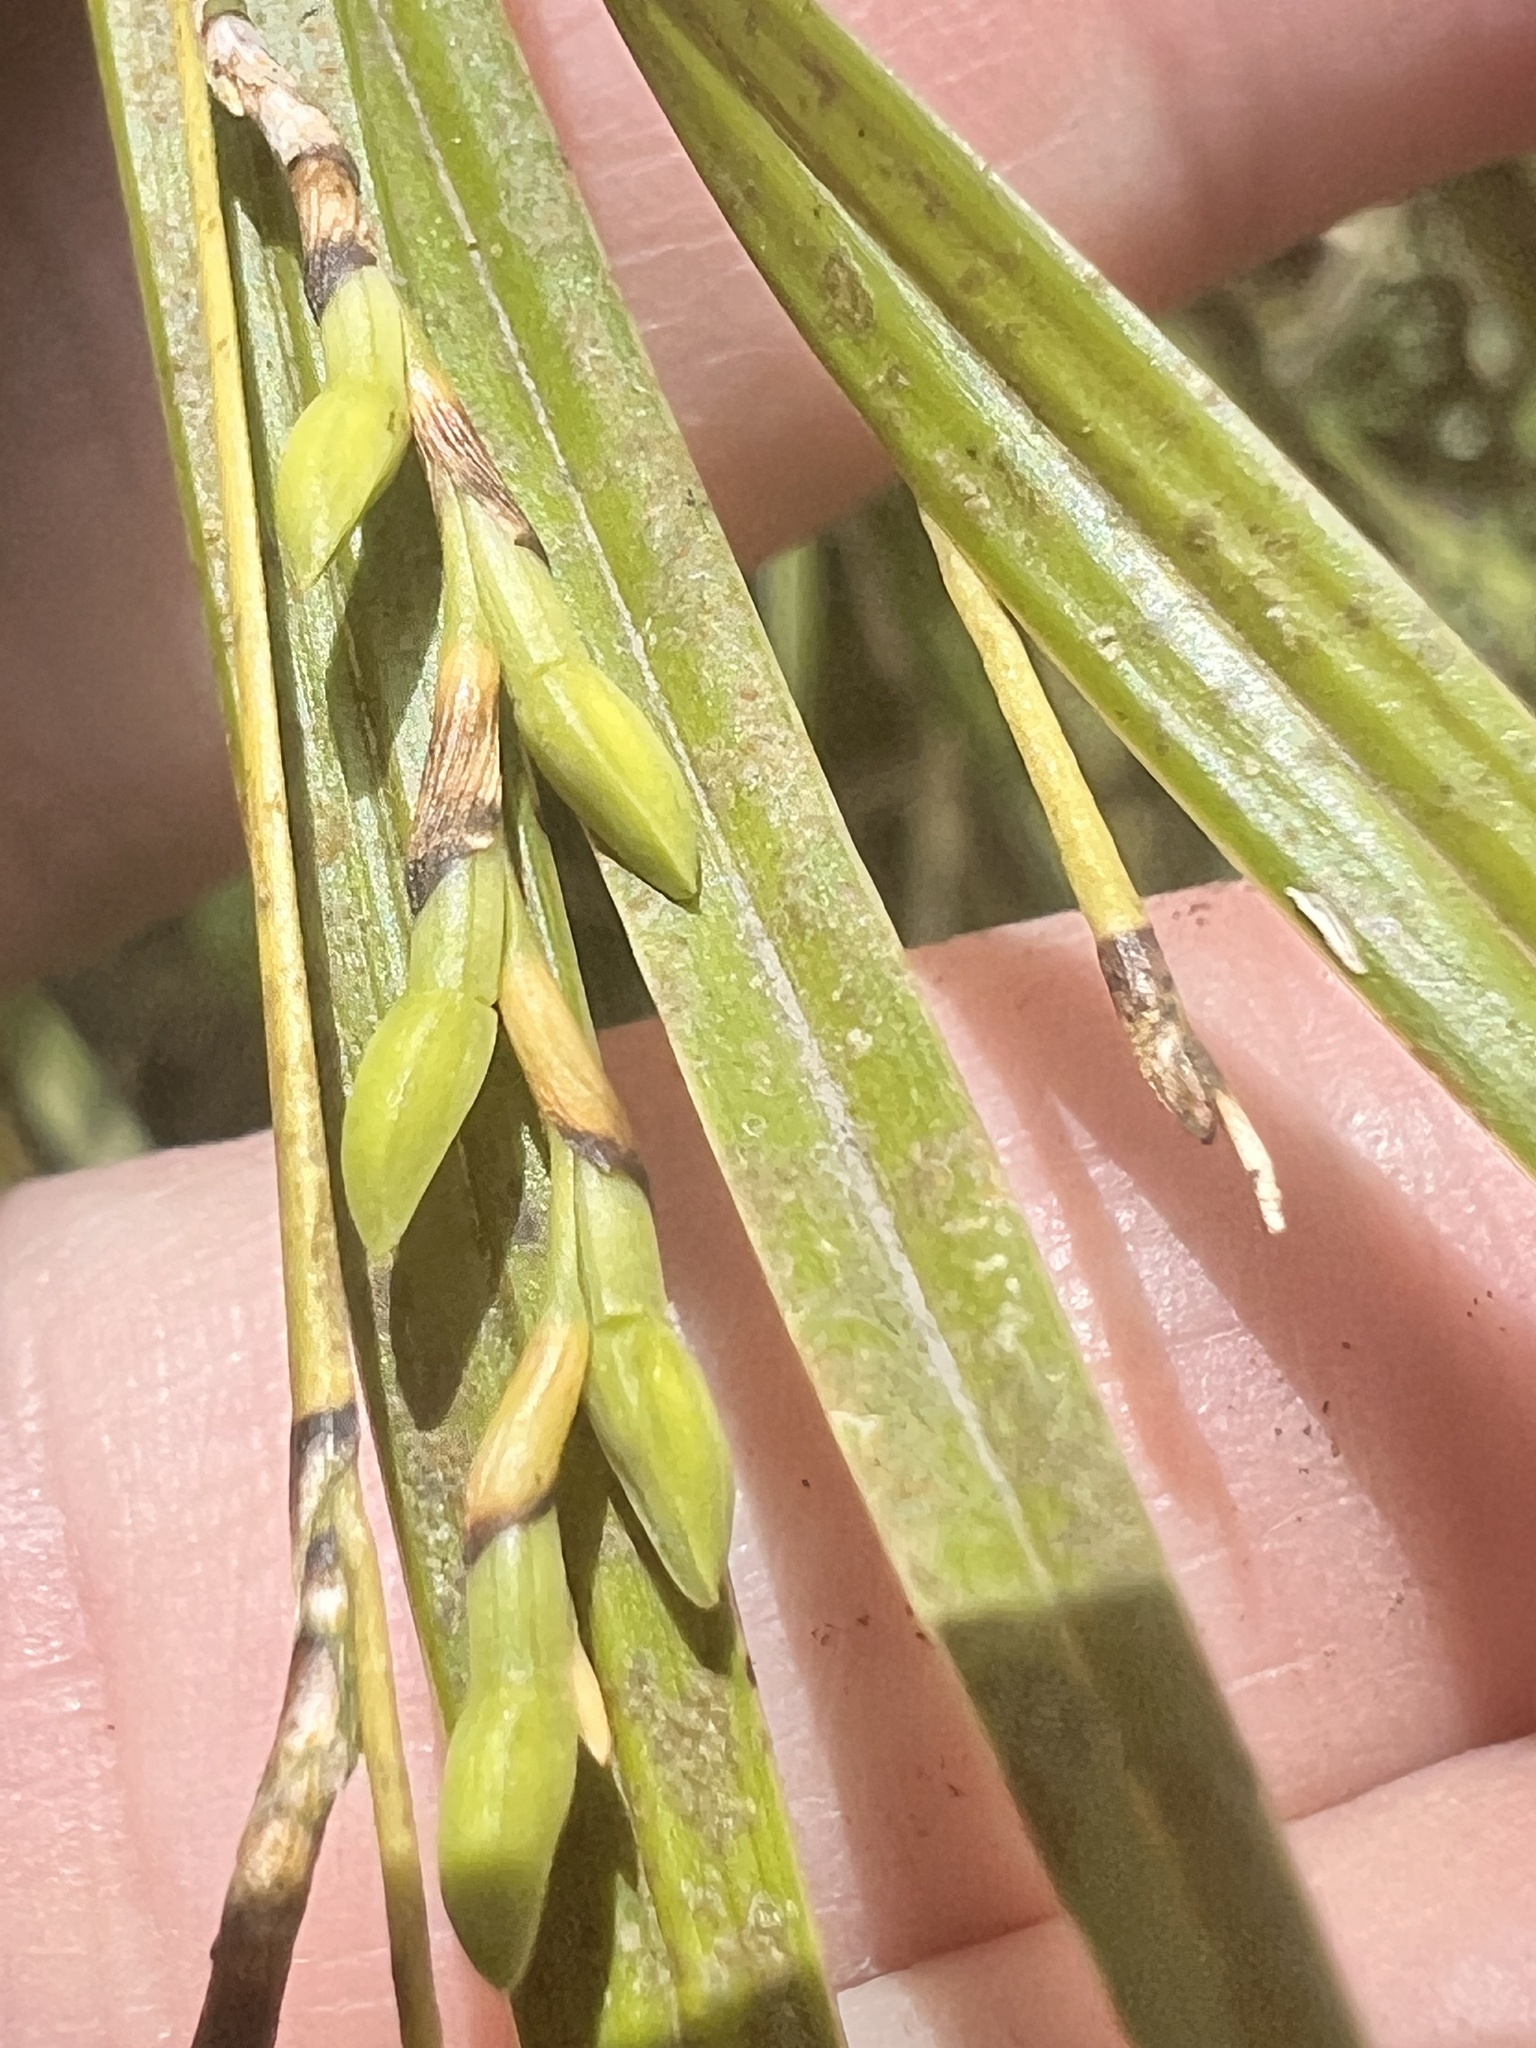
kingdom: Plantae
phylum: Tracheophyta
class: Liliopsida
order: Asparagales
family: Orchidaceae
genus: Earina
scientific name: Earina mucronata
